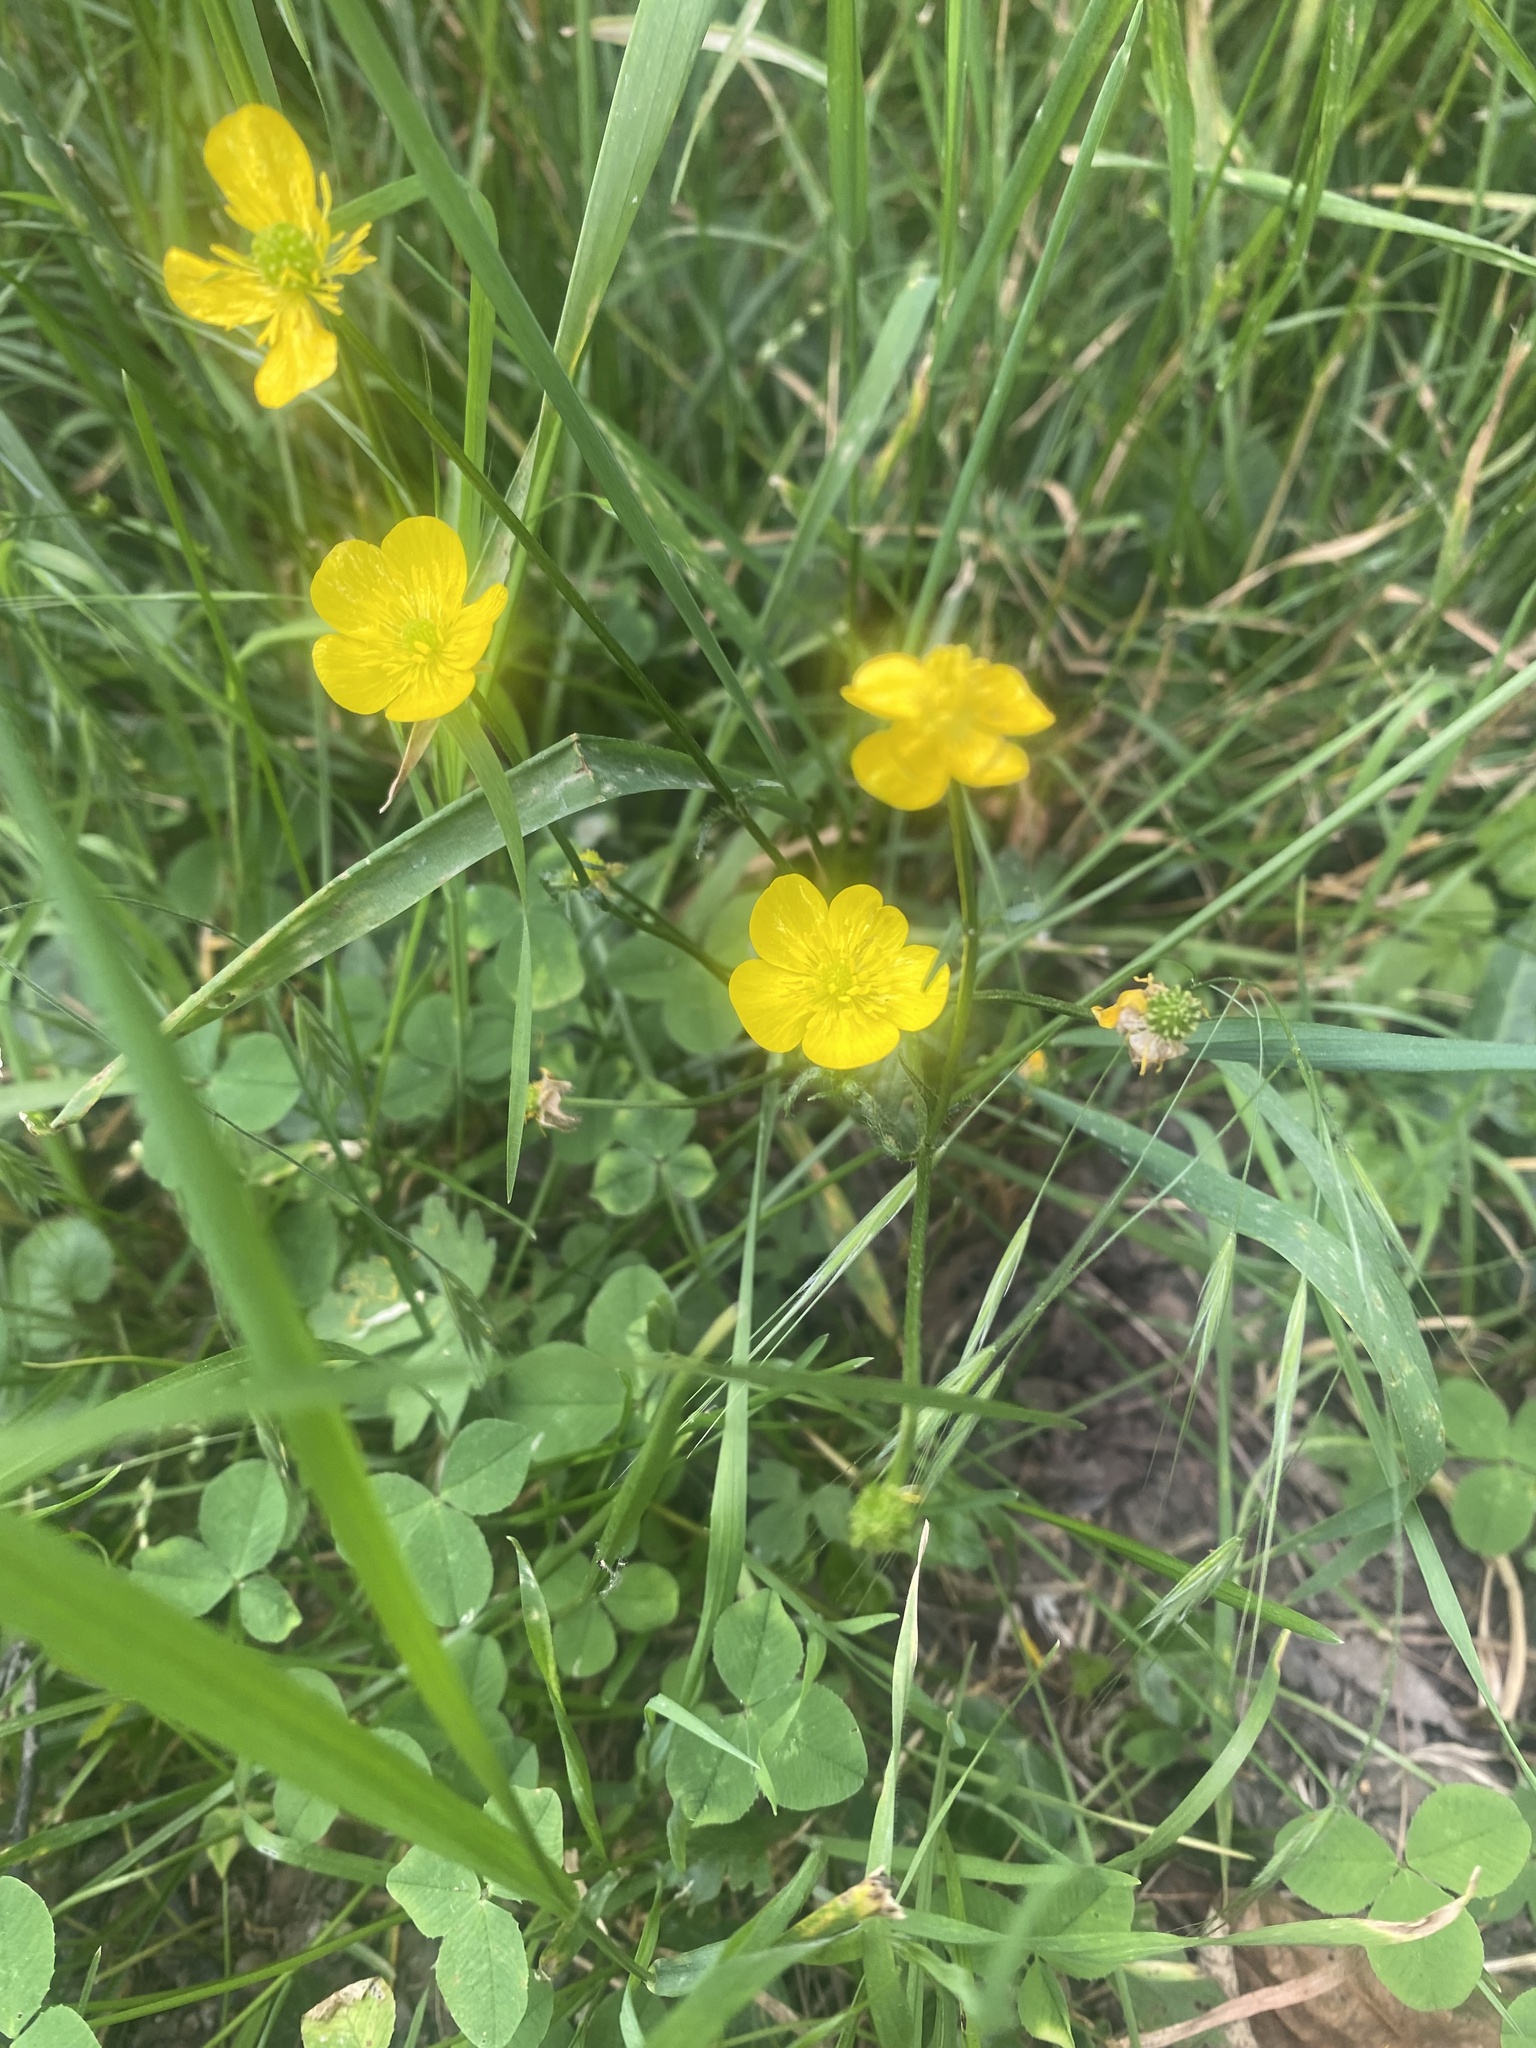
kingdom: Plantae
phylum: Tracheophyta
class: Magnoliopsida
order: Ranunculales
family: Ranunculaceae
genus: Ranunculus
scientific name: Ranunculus polyanthemos
